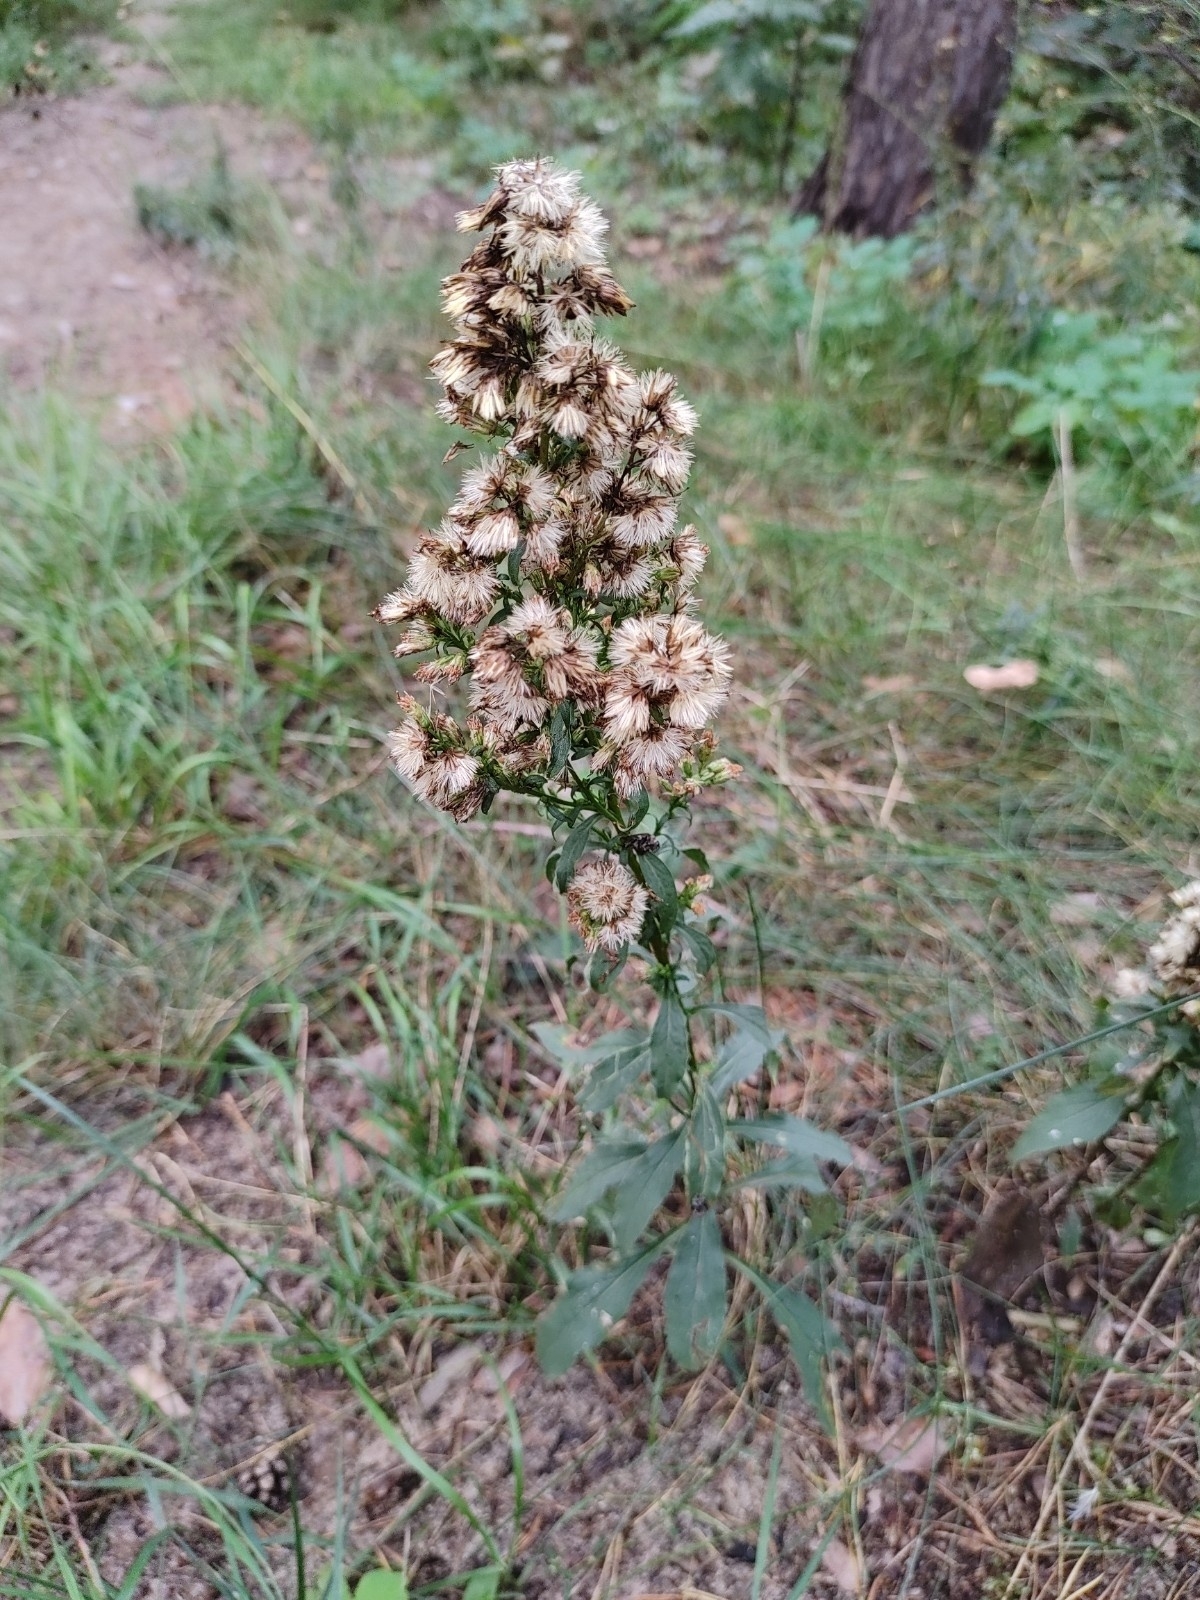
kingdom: Plantae
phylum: Tracheophyta
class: Magnoliopsida
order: Asterales
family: Asteraceae
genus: Solidago
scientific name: Solidago virgaurea
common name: Goldenrod
